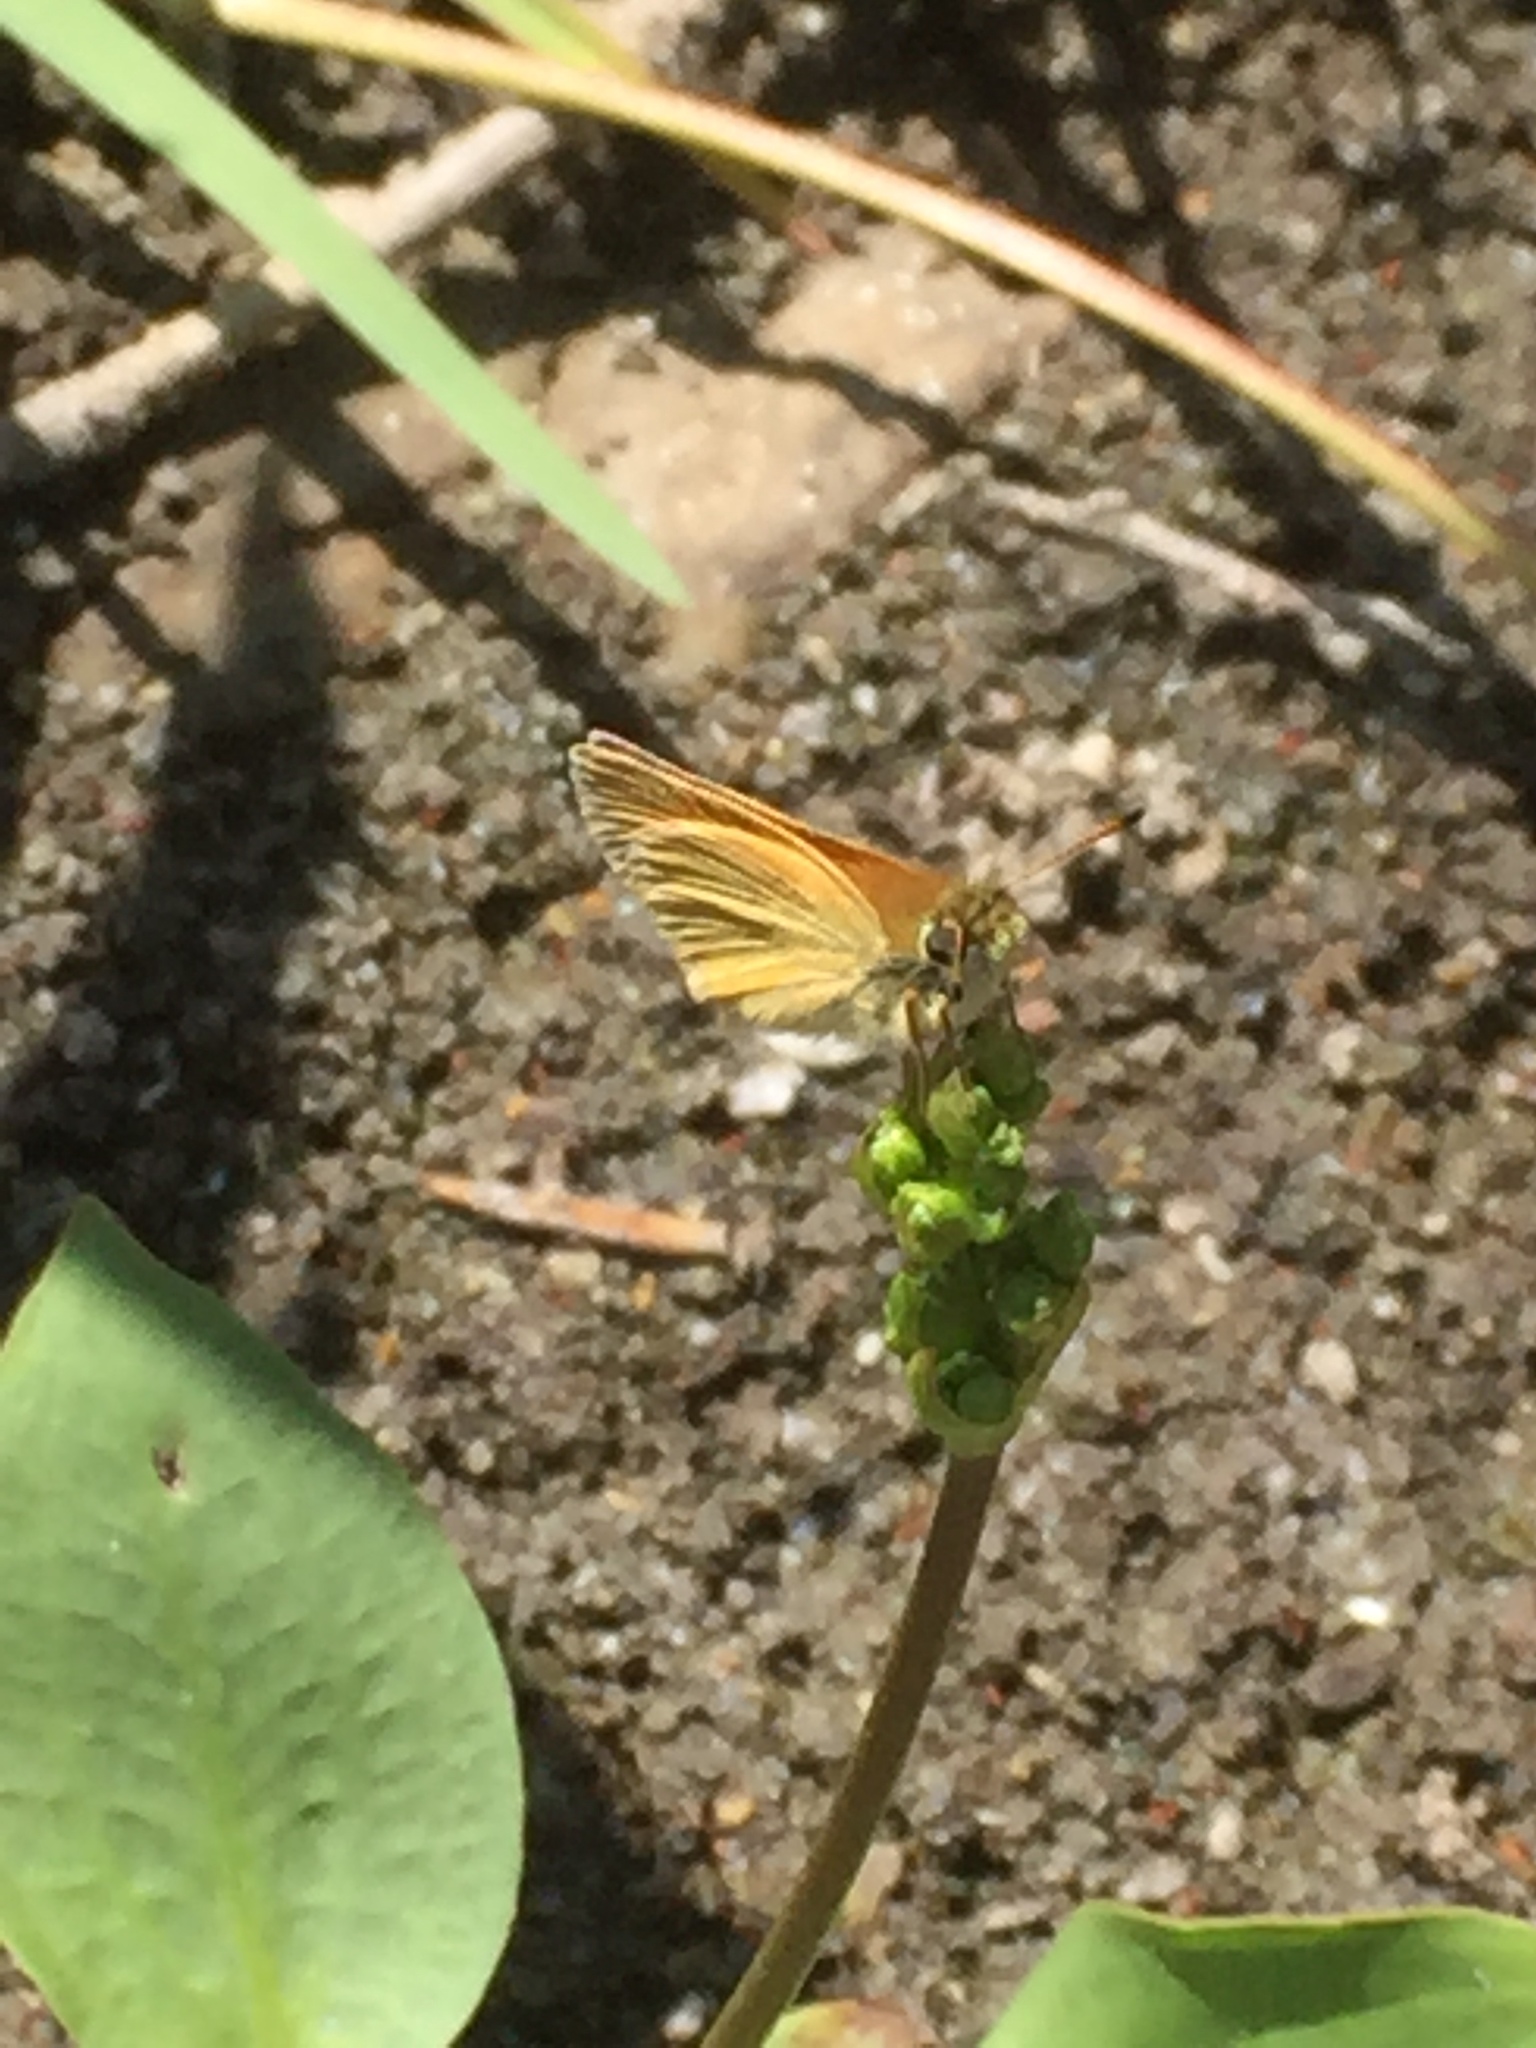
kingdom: Animalia
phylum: Arthropoda
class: Insecta
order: Lepidoptera
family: Hesperiidae
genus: Thymelicus
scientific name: Thymelicus lineola
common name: Essex skipper
